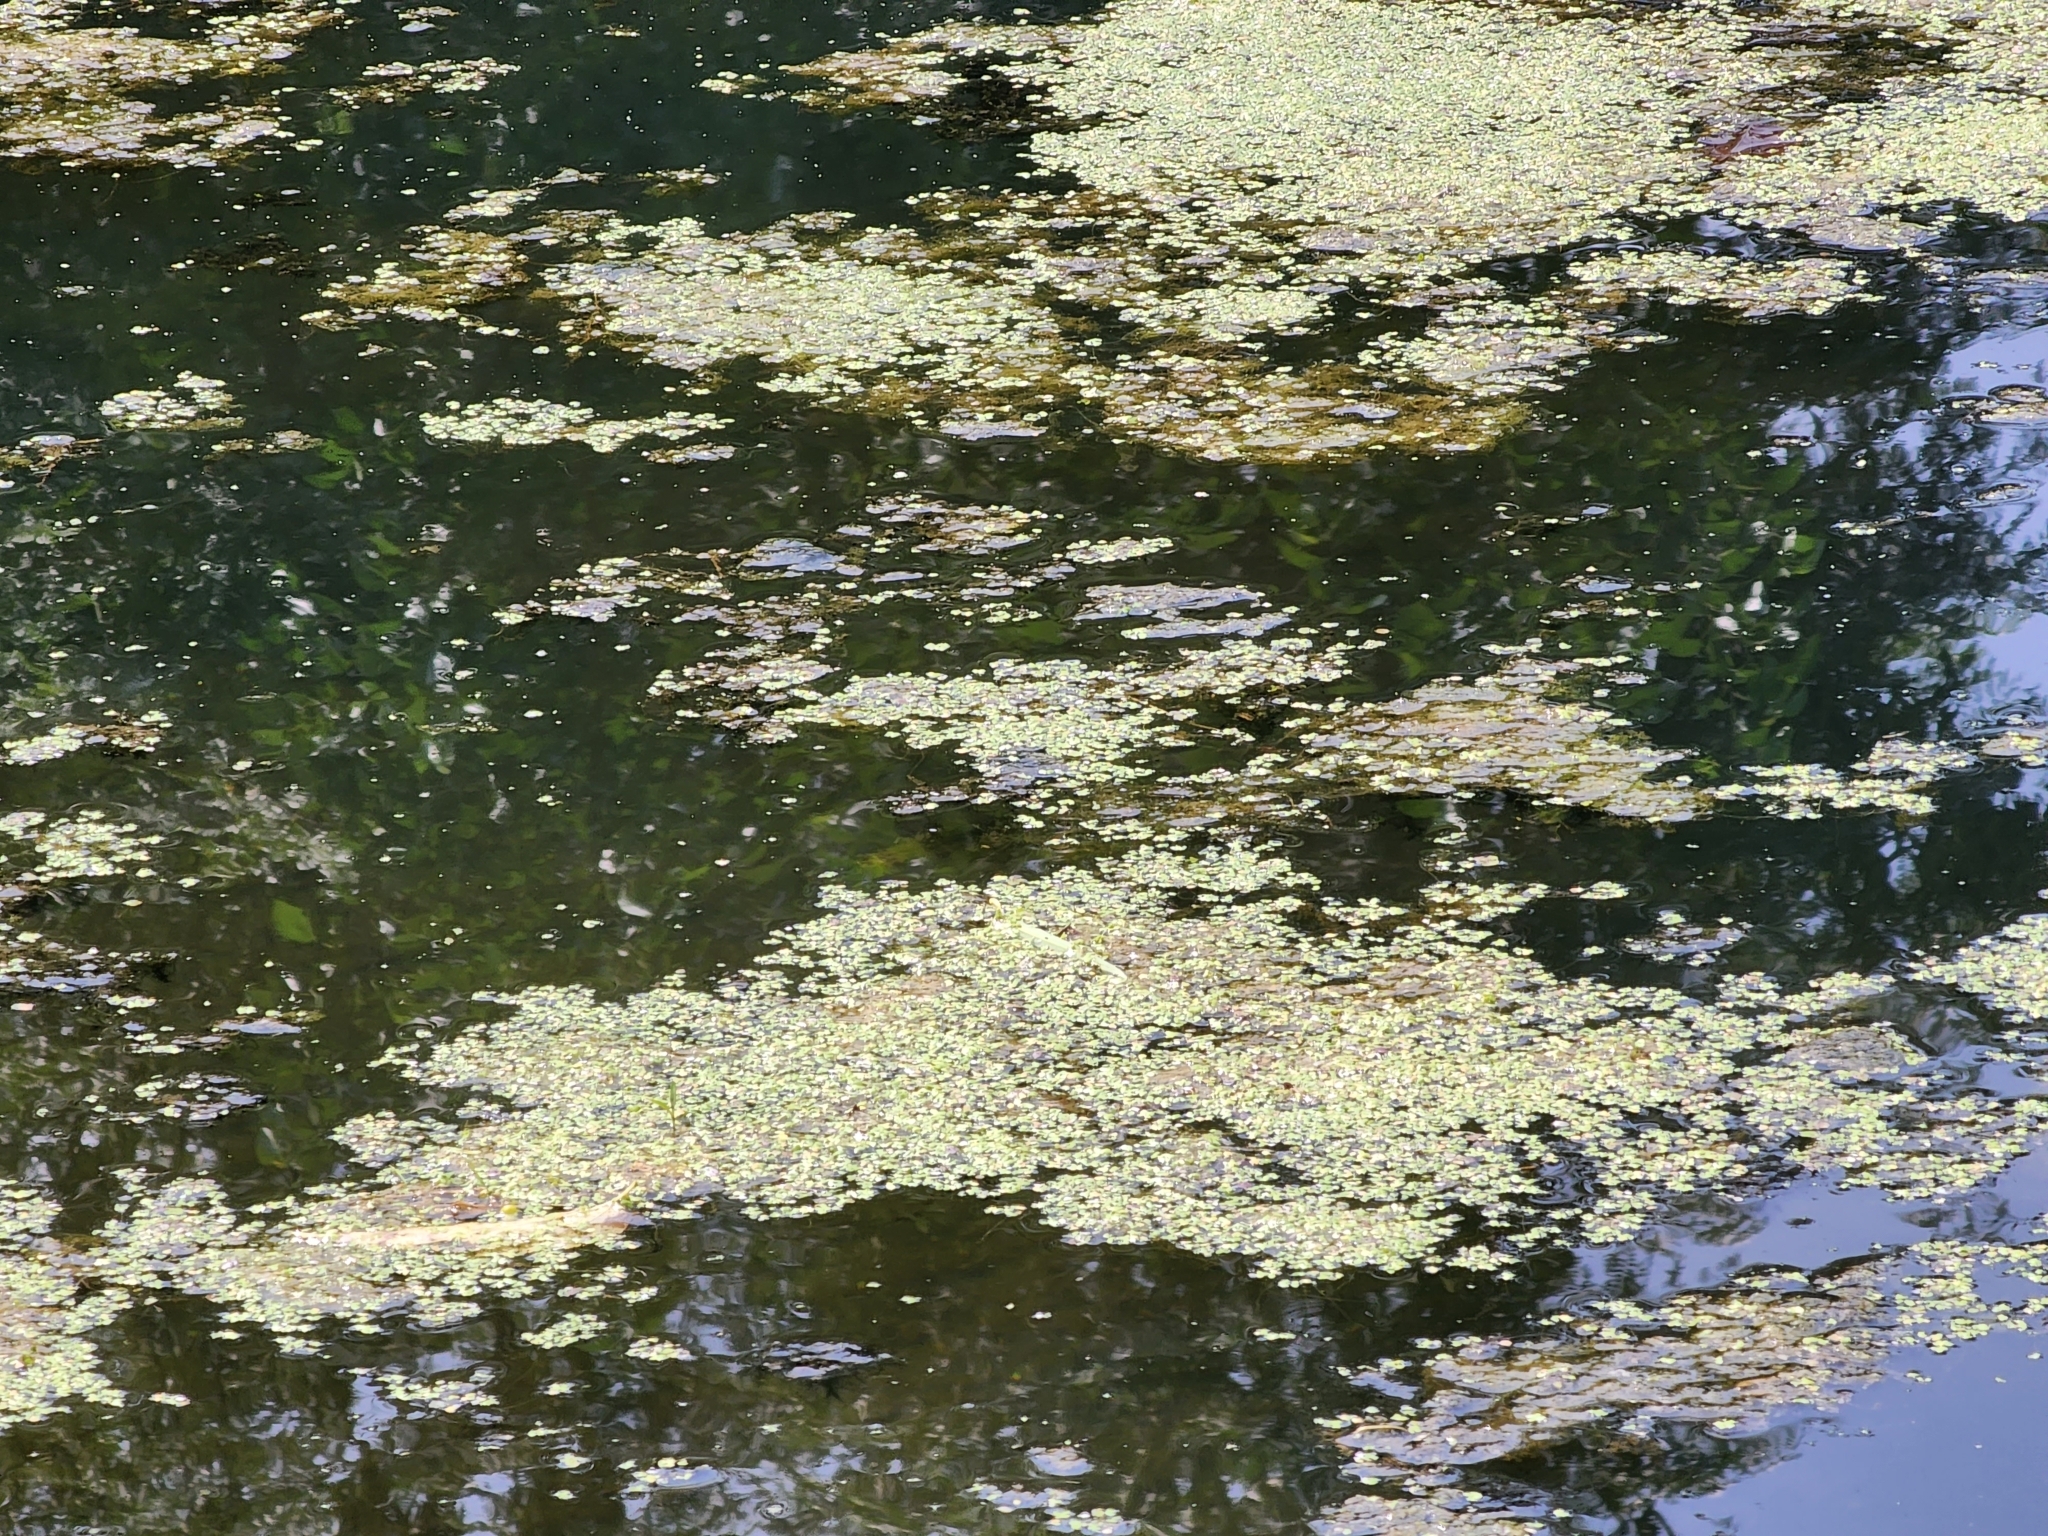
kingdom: Plantae
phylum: Tracheophyta
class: Liliopsida
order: Alismatales
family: Araceae
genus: Lemna
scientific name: Lemna minor
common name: Common duckweed
